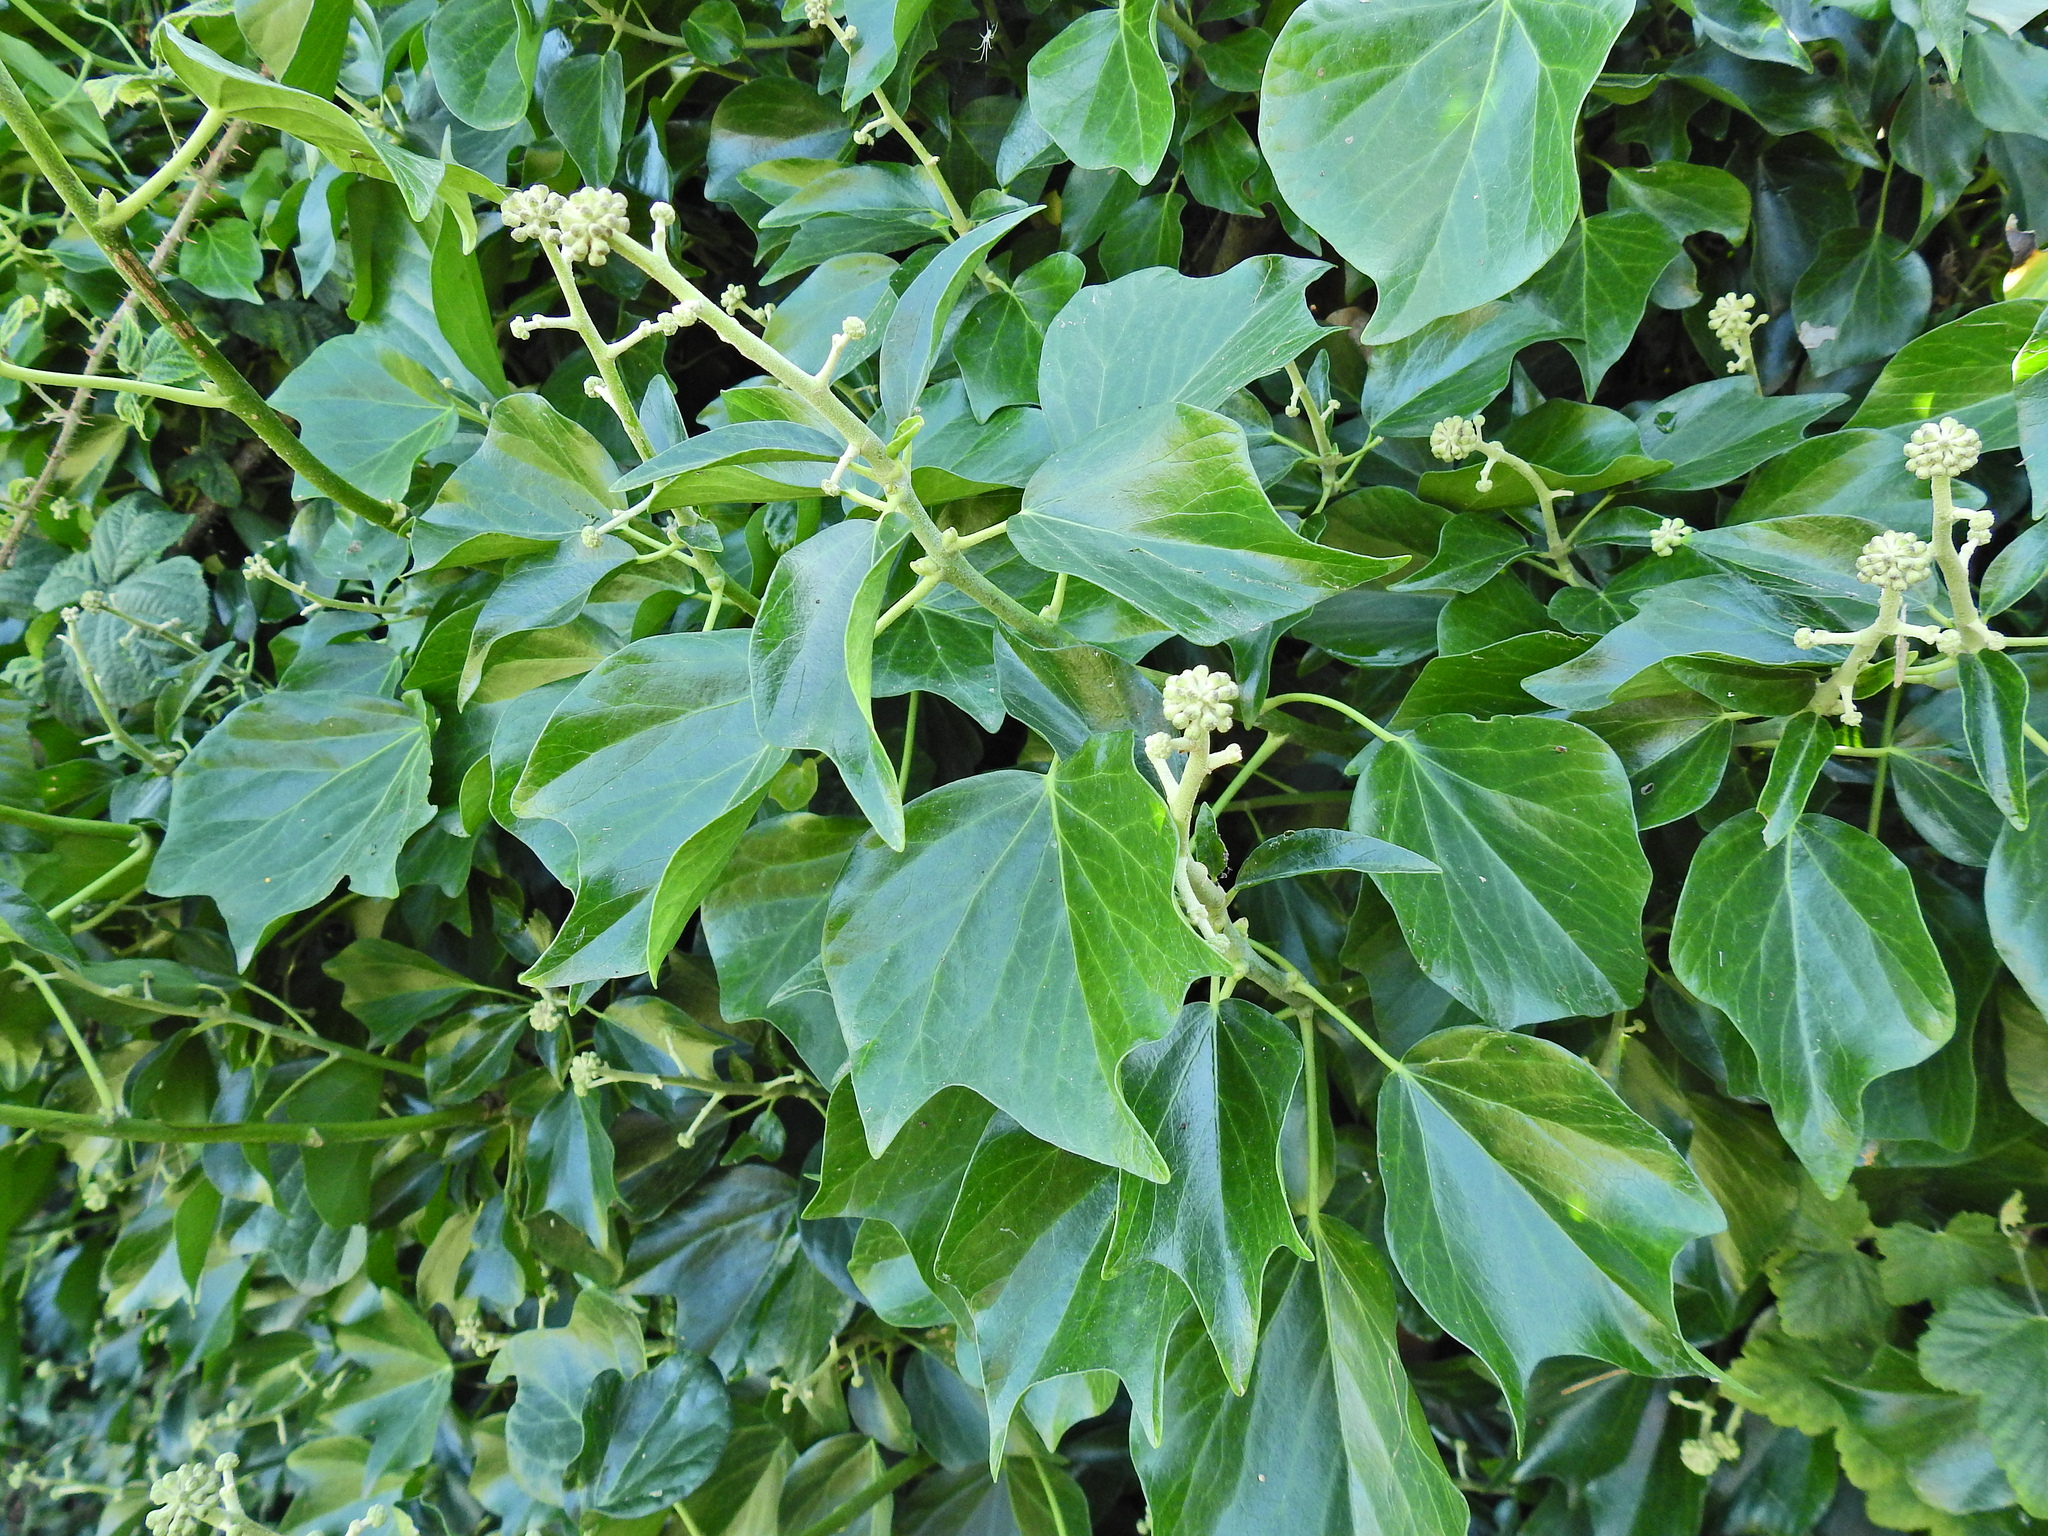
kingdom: Plantae
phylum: Tracheophyta
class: Magnoliopsida
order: Apiales
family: Araliaceae
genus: Hedera
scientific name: Hedera helix
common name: Ivy
